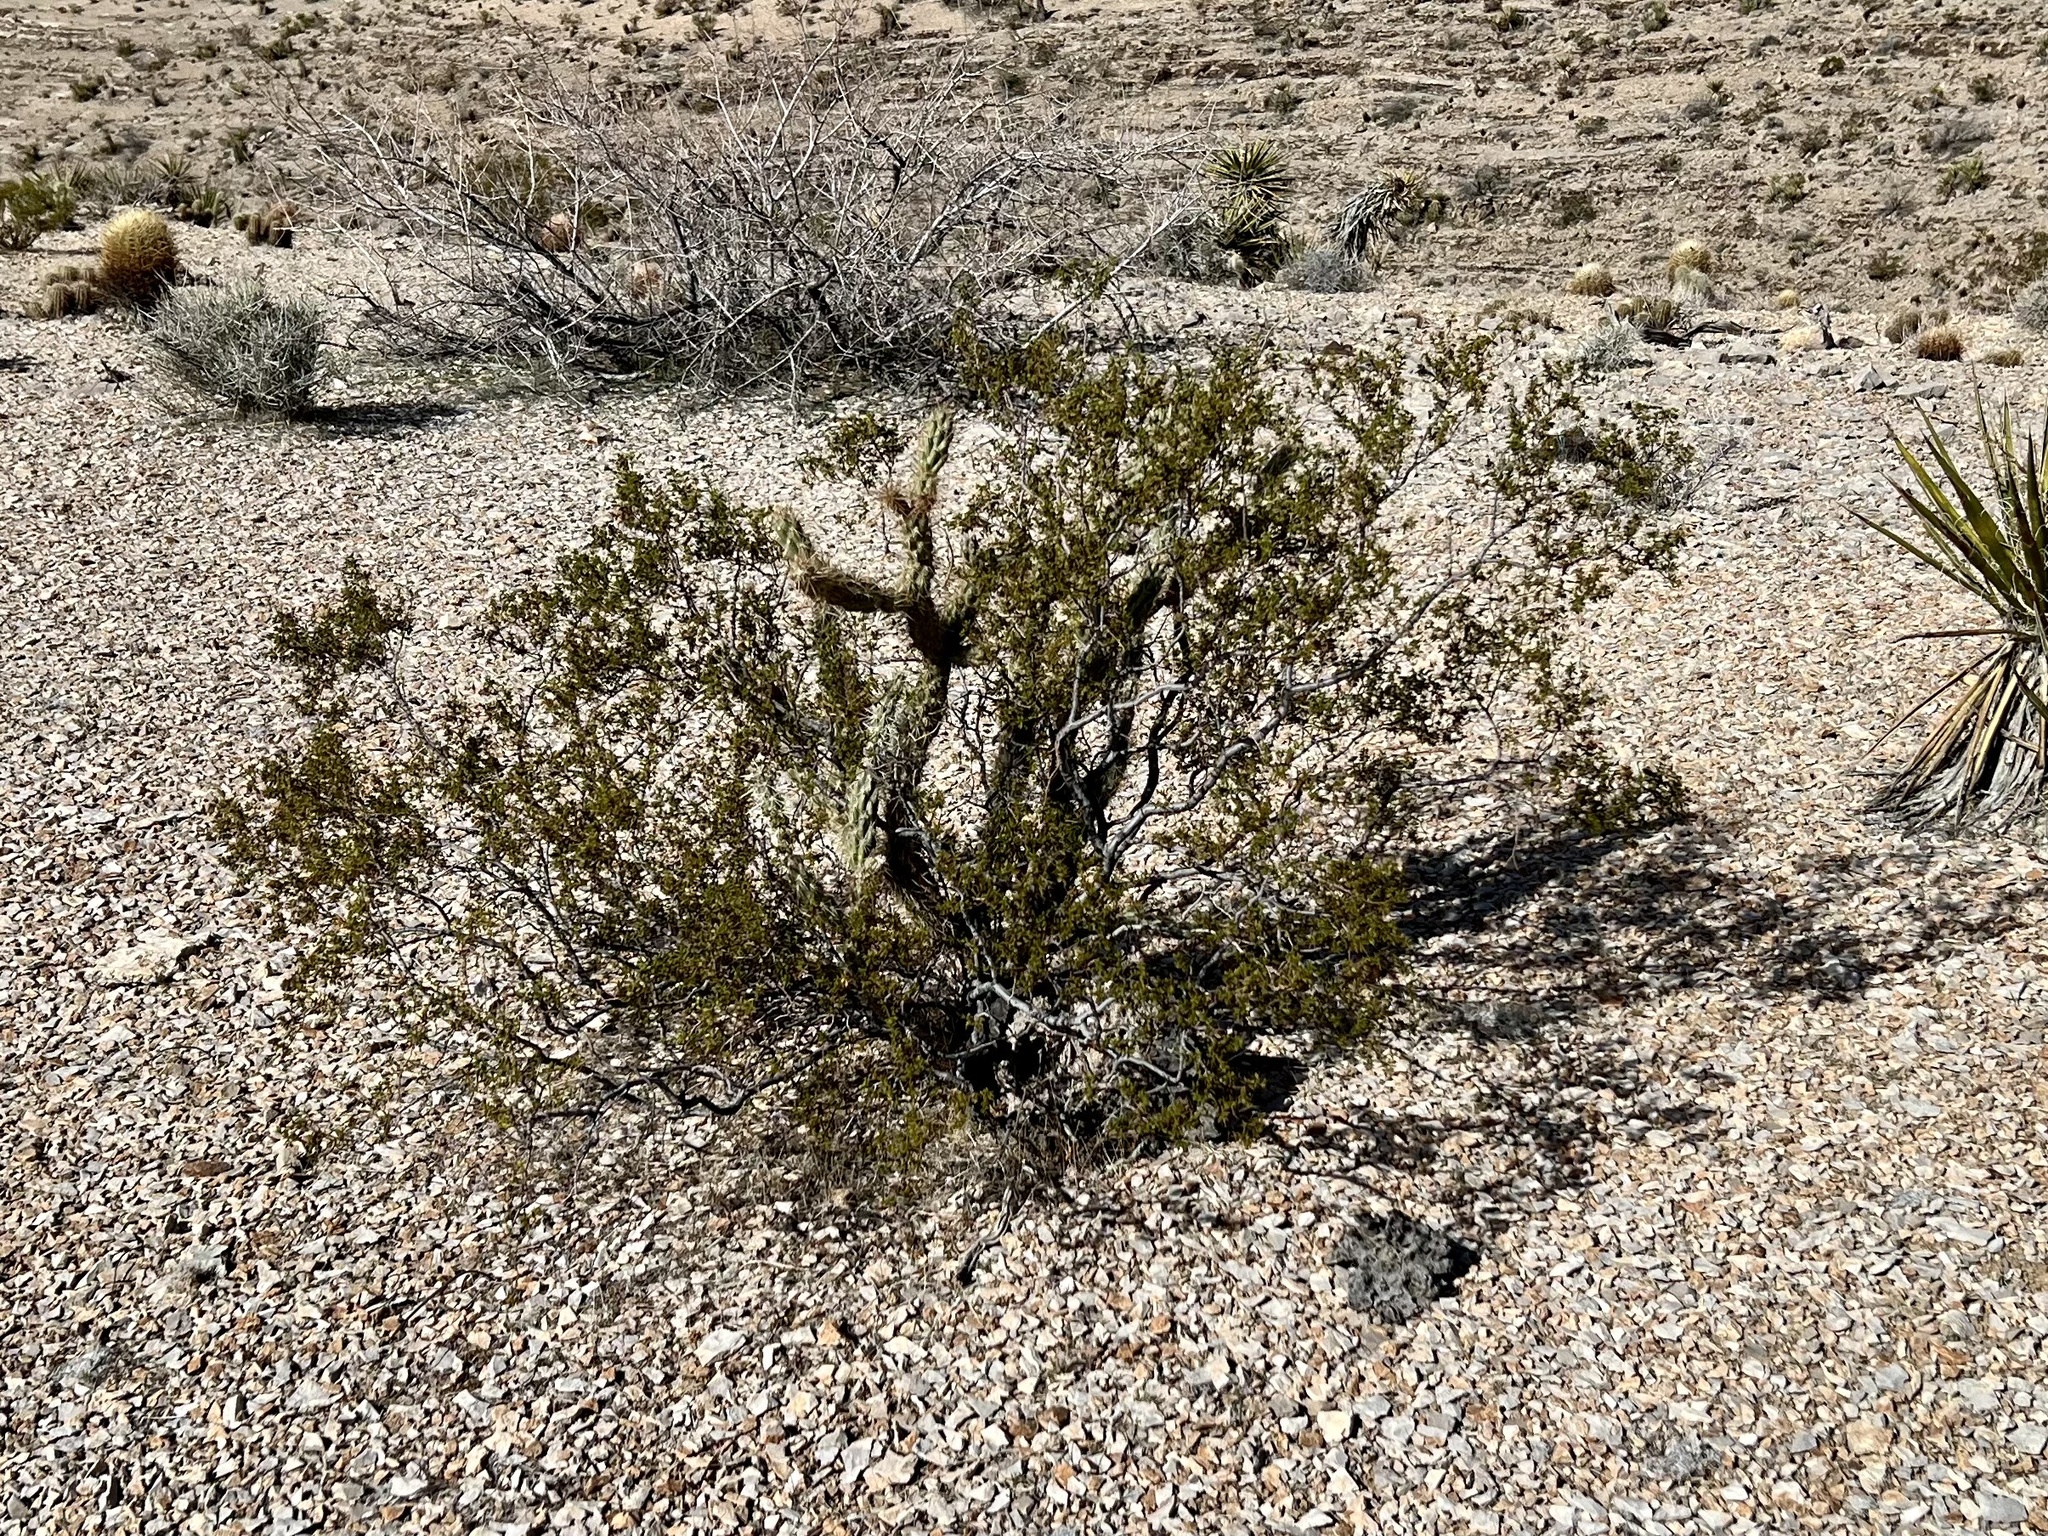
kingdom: Plantae
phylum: Tracheophyta
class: Magnoliopsida
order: Zygophyllales
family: Zygophyllaceae
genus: Larrea
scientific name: Larrea tridentata
